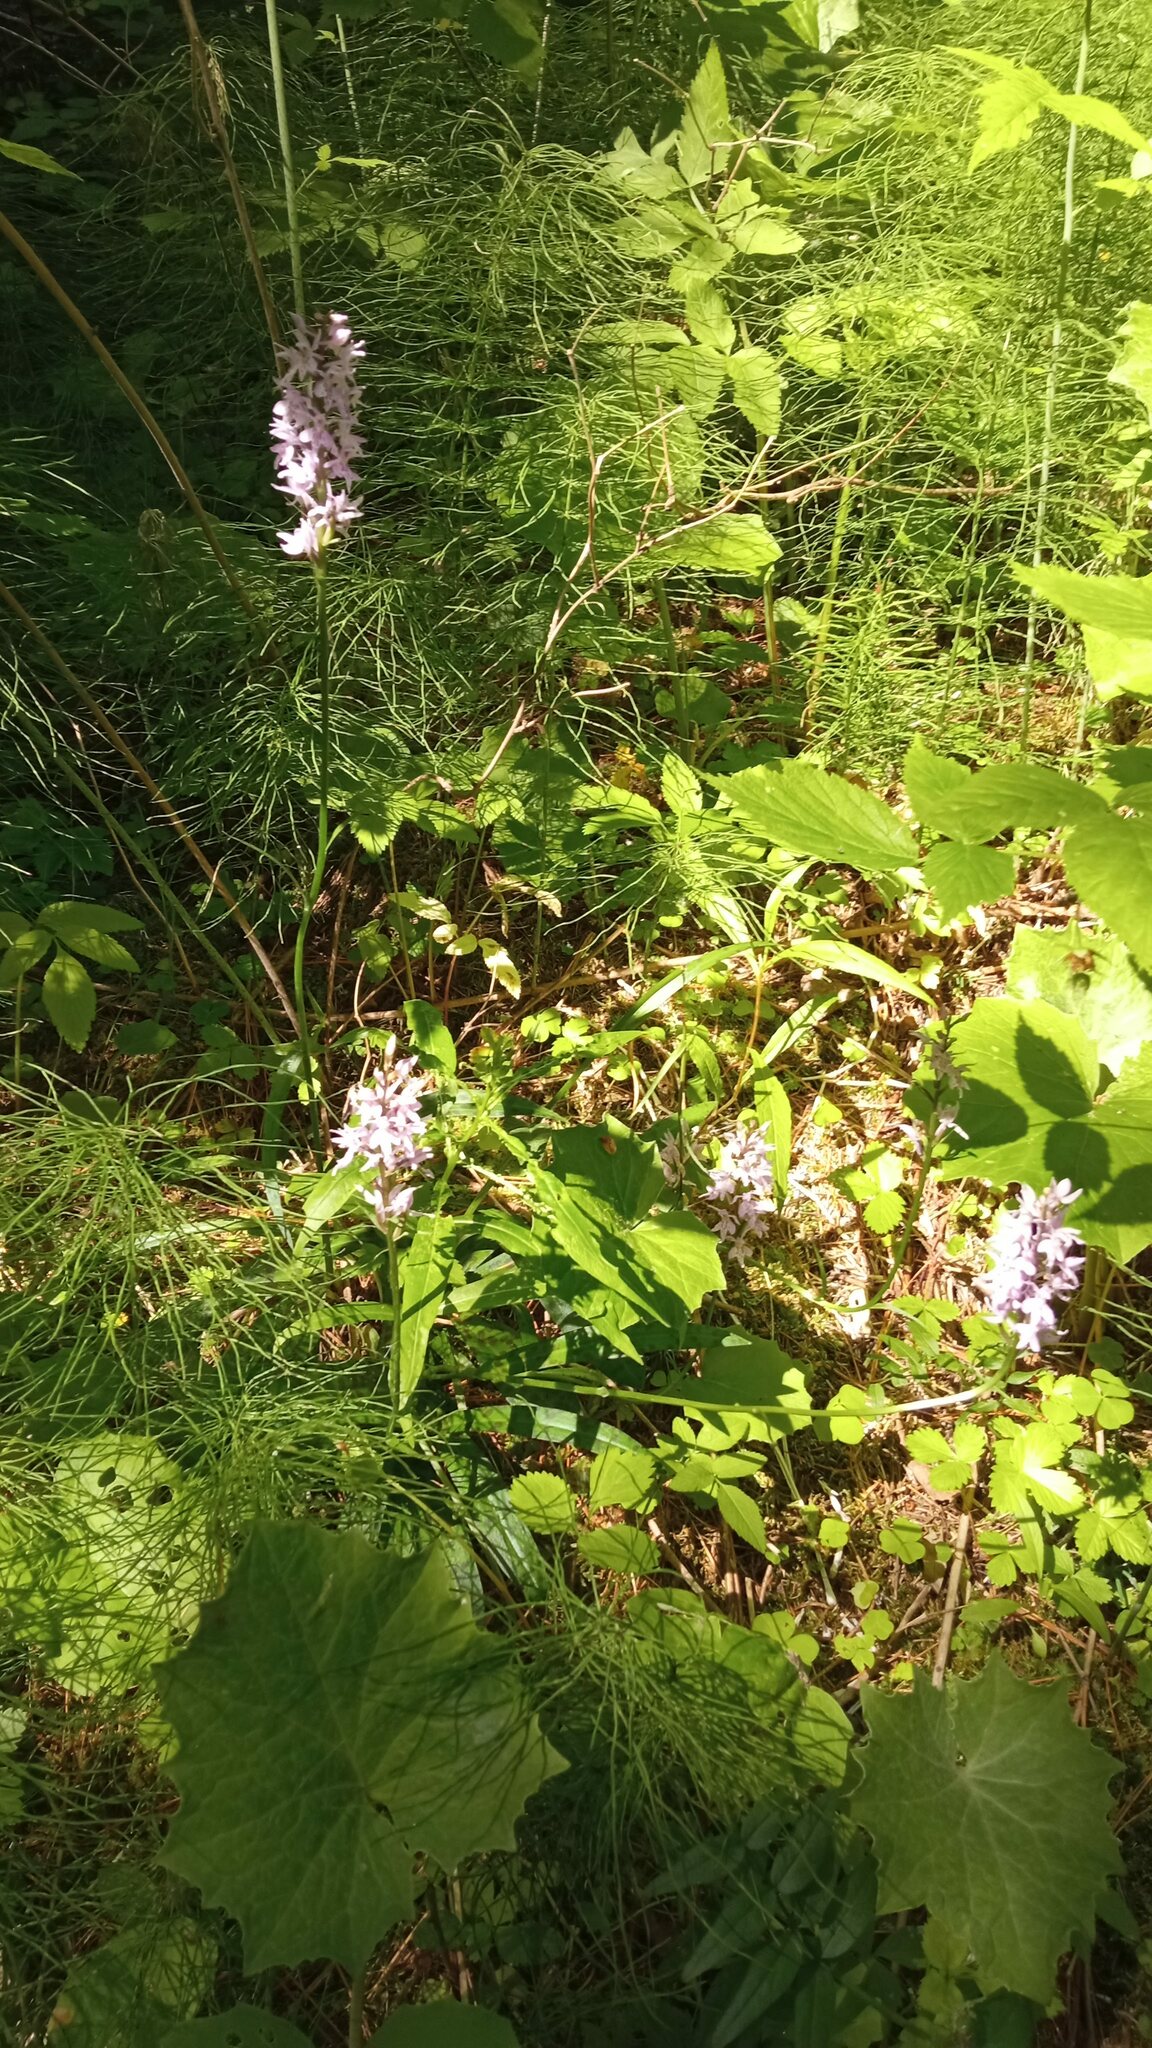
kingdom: Plantae
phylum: Tracheophyta
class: Liliopsida
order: Asparagales
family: Orchidaceae
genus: Dactylorhiza
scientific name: Dactylorhiza maculata
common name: Heath spotted-orchid
